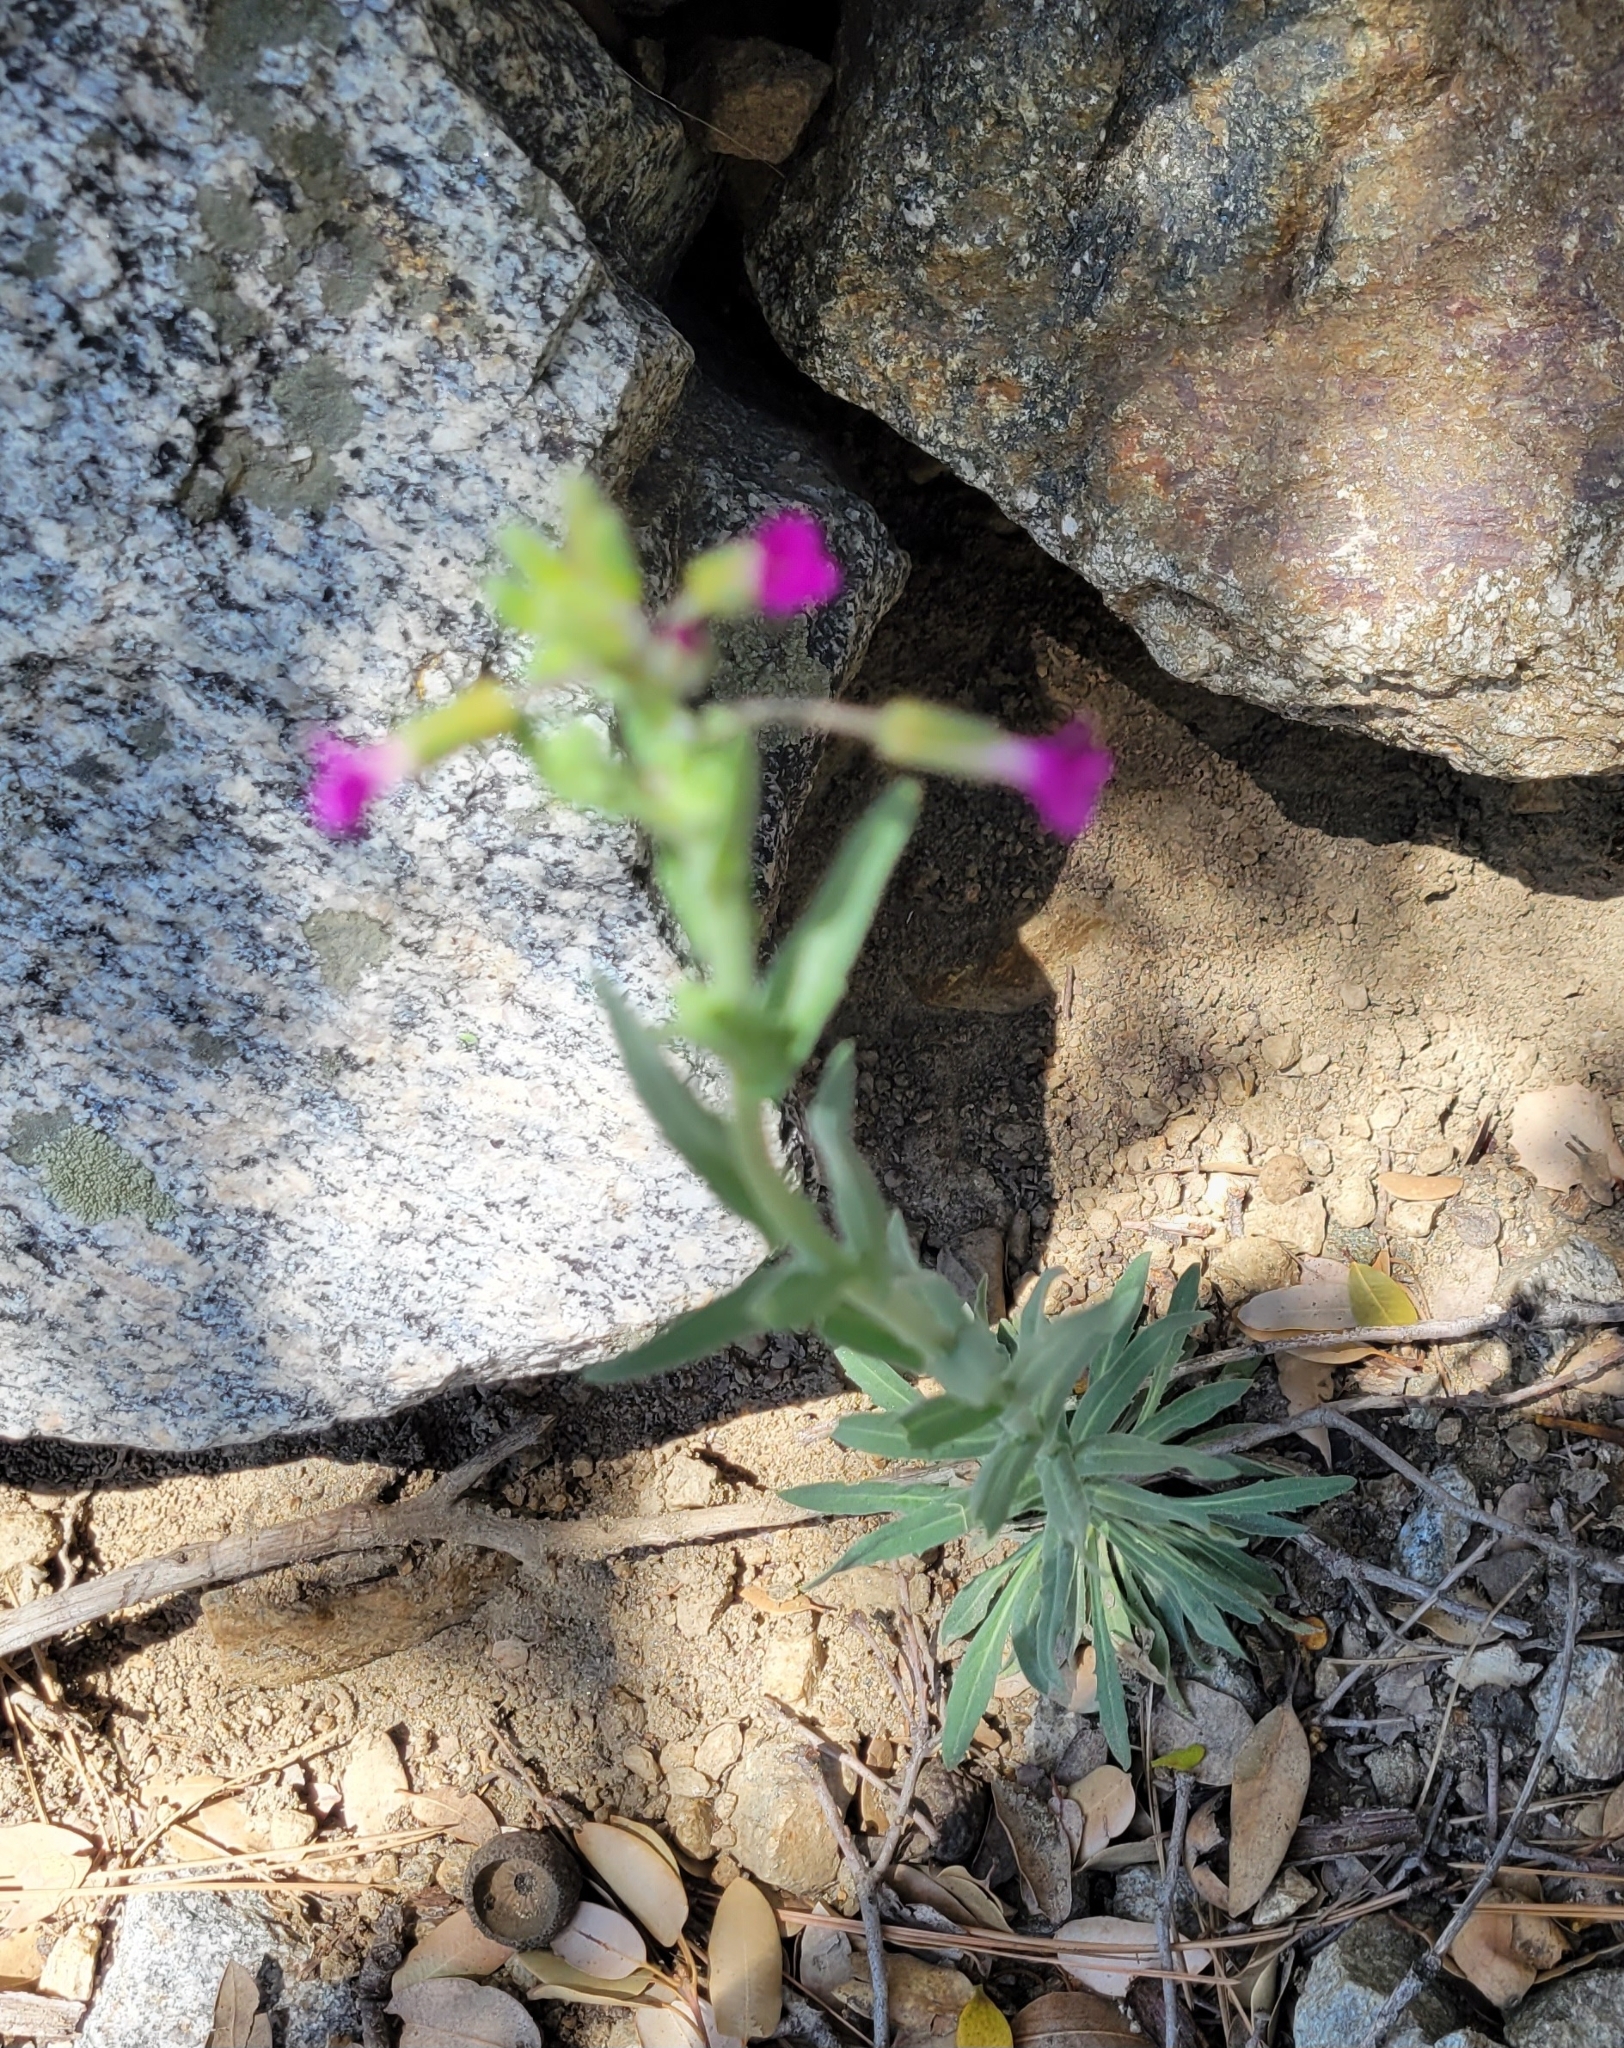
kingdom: Plantae
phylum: Tracheophyta
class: Magnoliopsida
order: Brassicales
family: Brassicaceae
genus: Boechera
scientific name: Boechera californica
